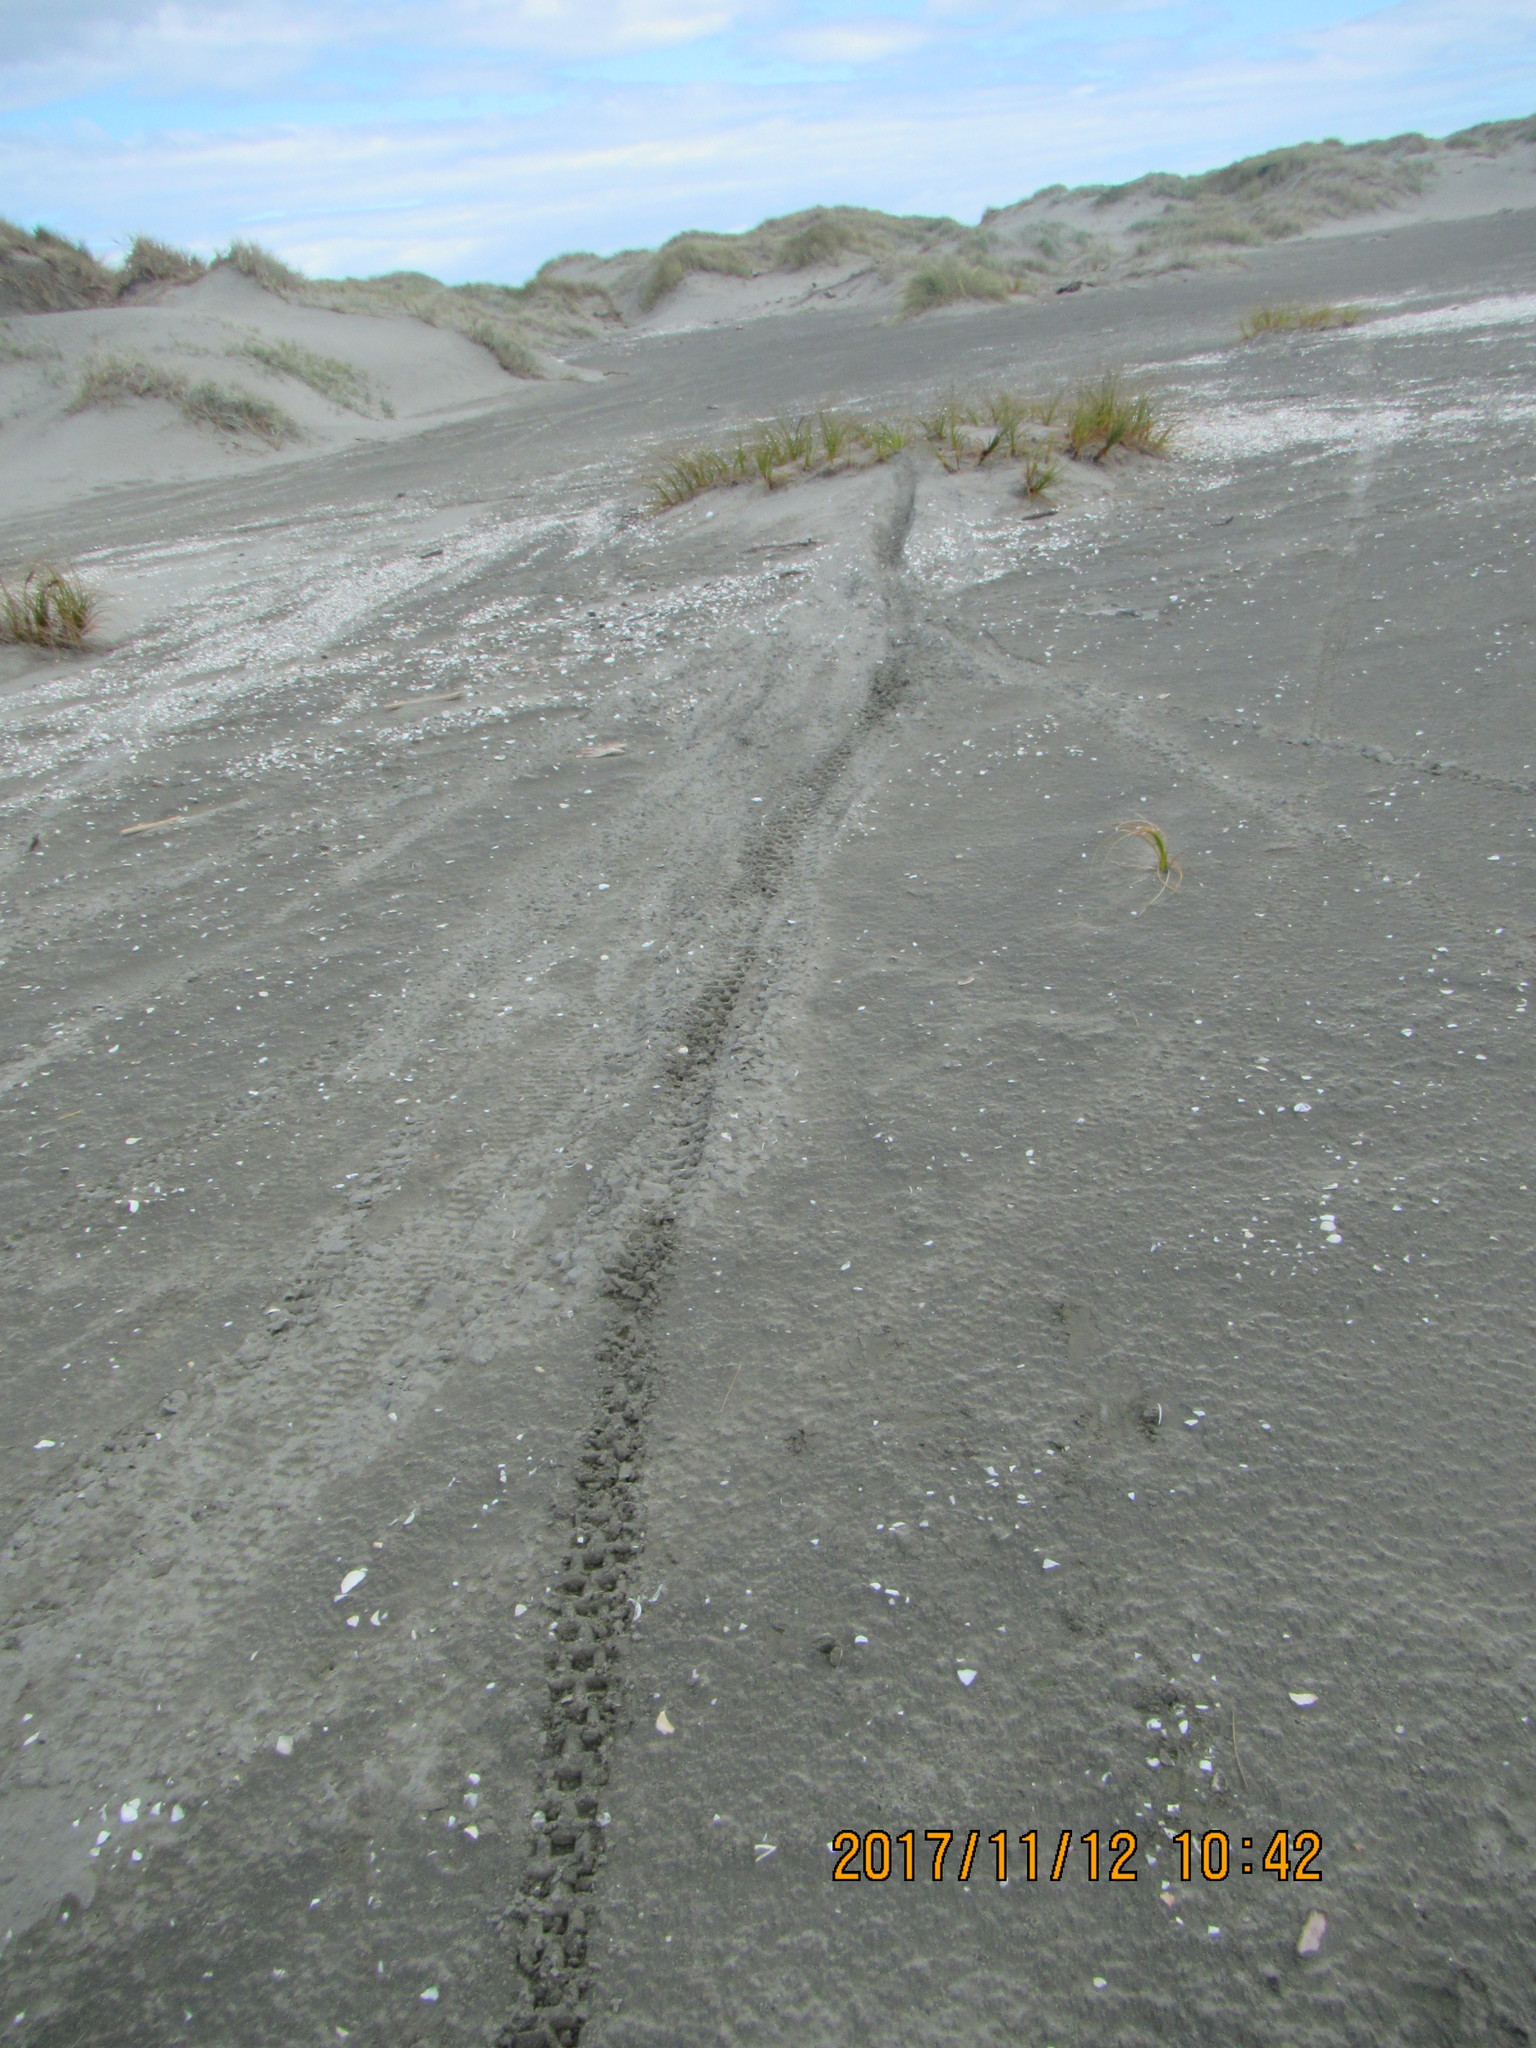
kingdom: Plantae
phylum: Tracheophyta
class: Liliopsida
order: Poales
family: Cyperaceae
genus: Ficinia
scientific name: Ficinia spiralis
